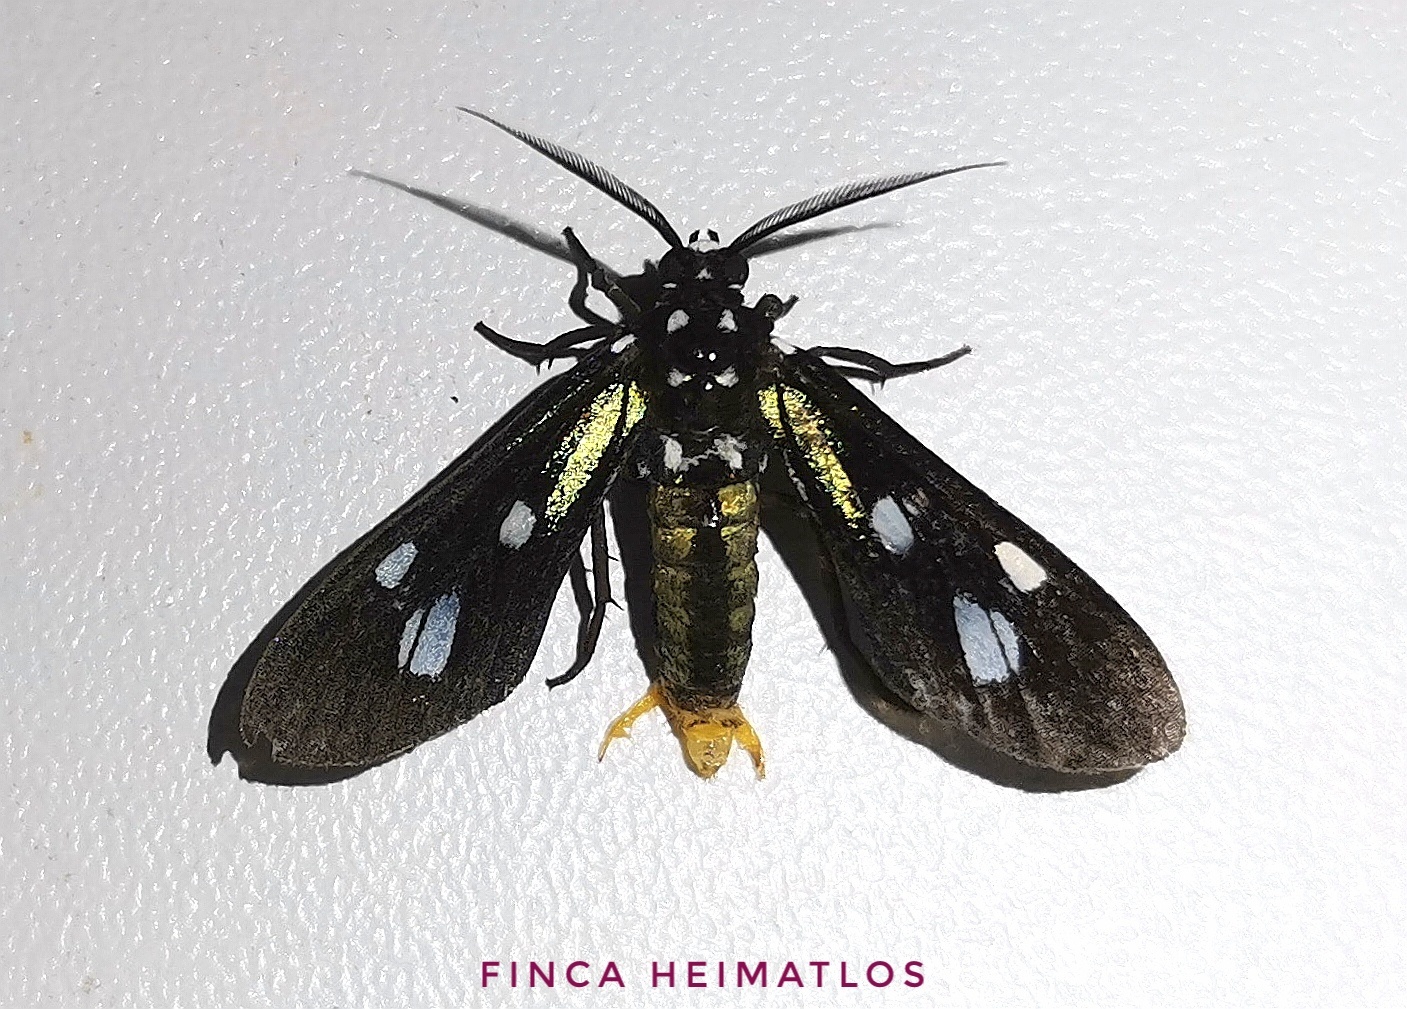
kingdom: Animalia
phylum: Arthropoda
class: Insecta
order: Lepidoptera
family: Erebidae
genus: Leucopleura
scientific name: Leucopleura viridis
